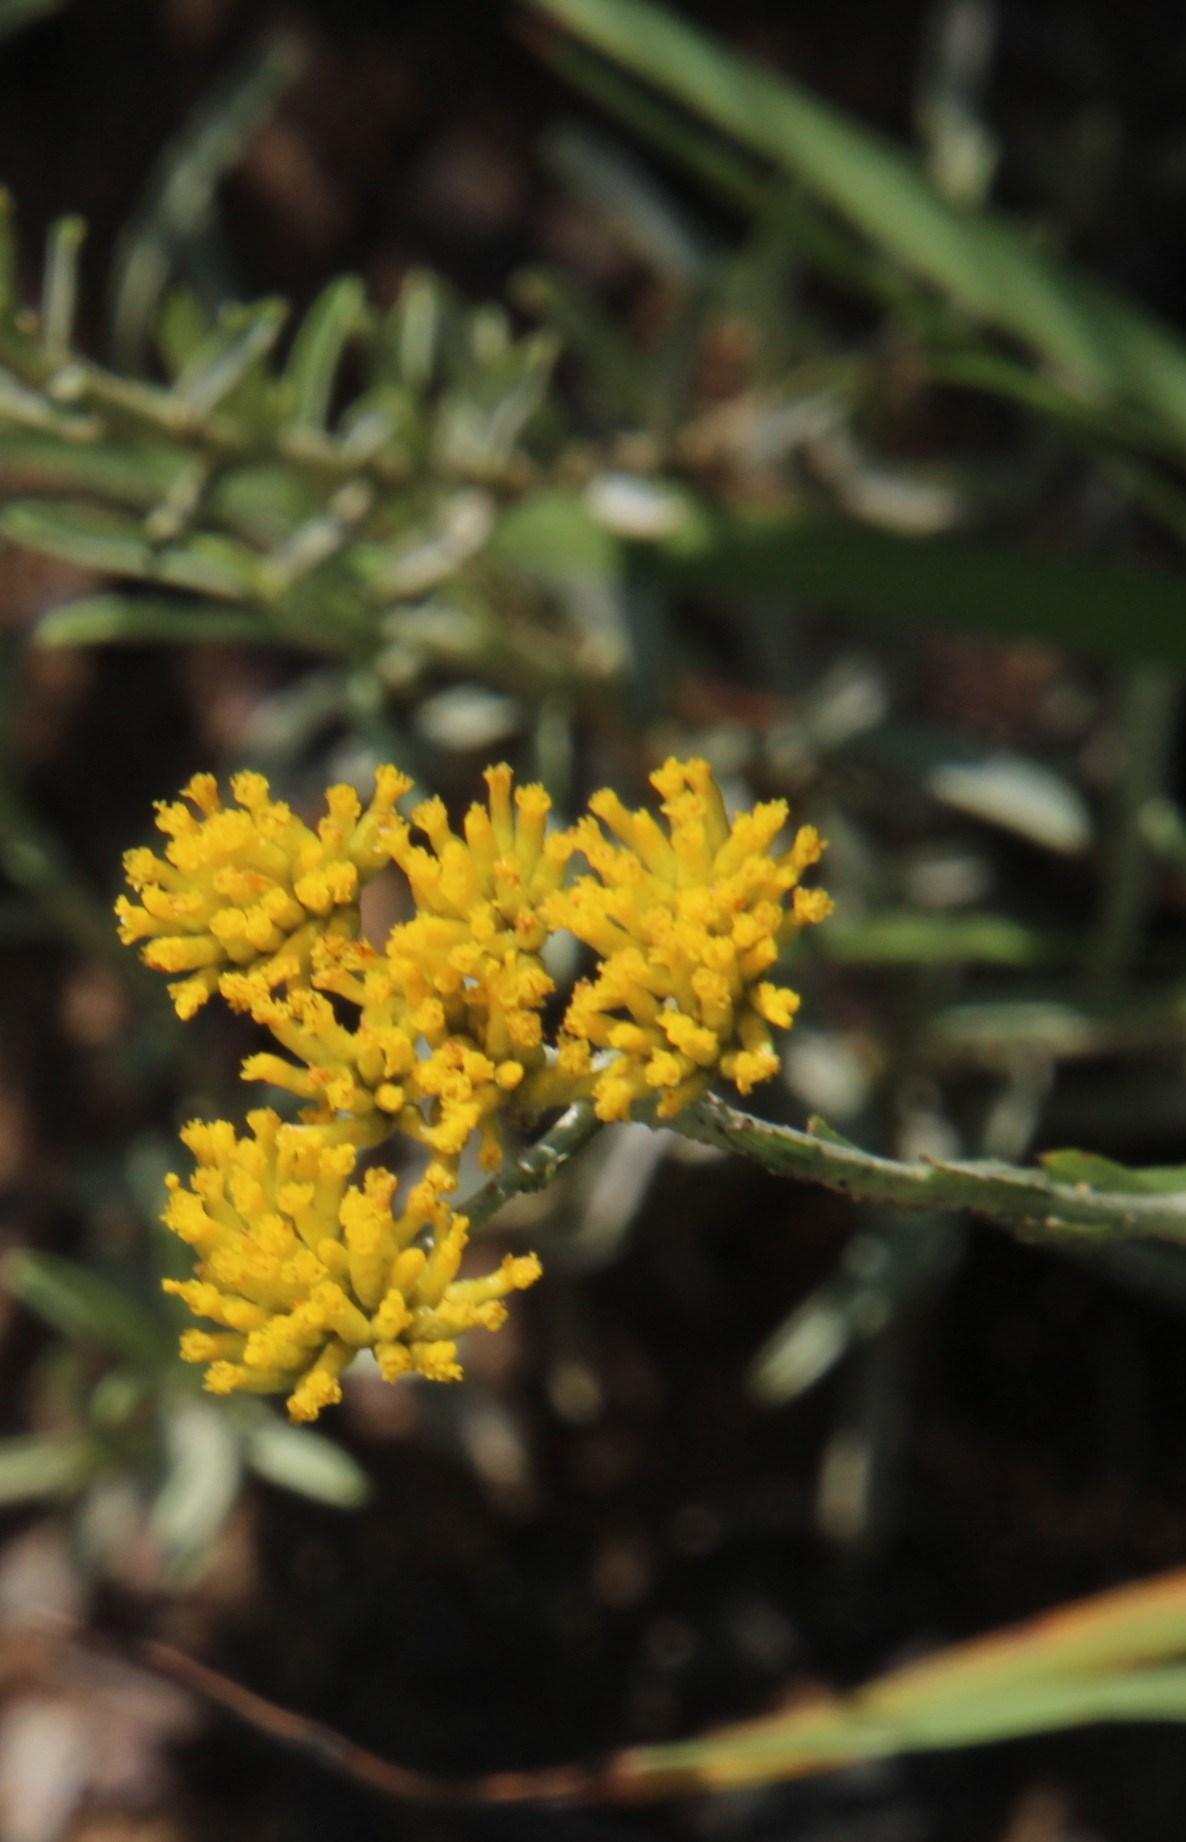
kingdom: Plantae
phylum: Tracheophyta
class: Magnoliopsida
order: Asterales
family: Asteraceae
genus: Helichrysum
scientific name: Helichrysum rutilans
